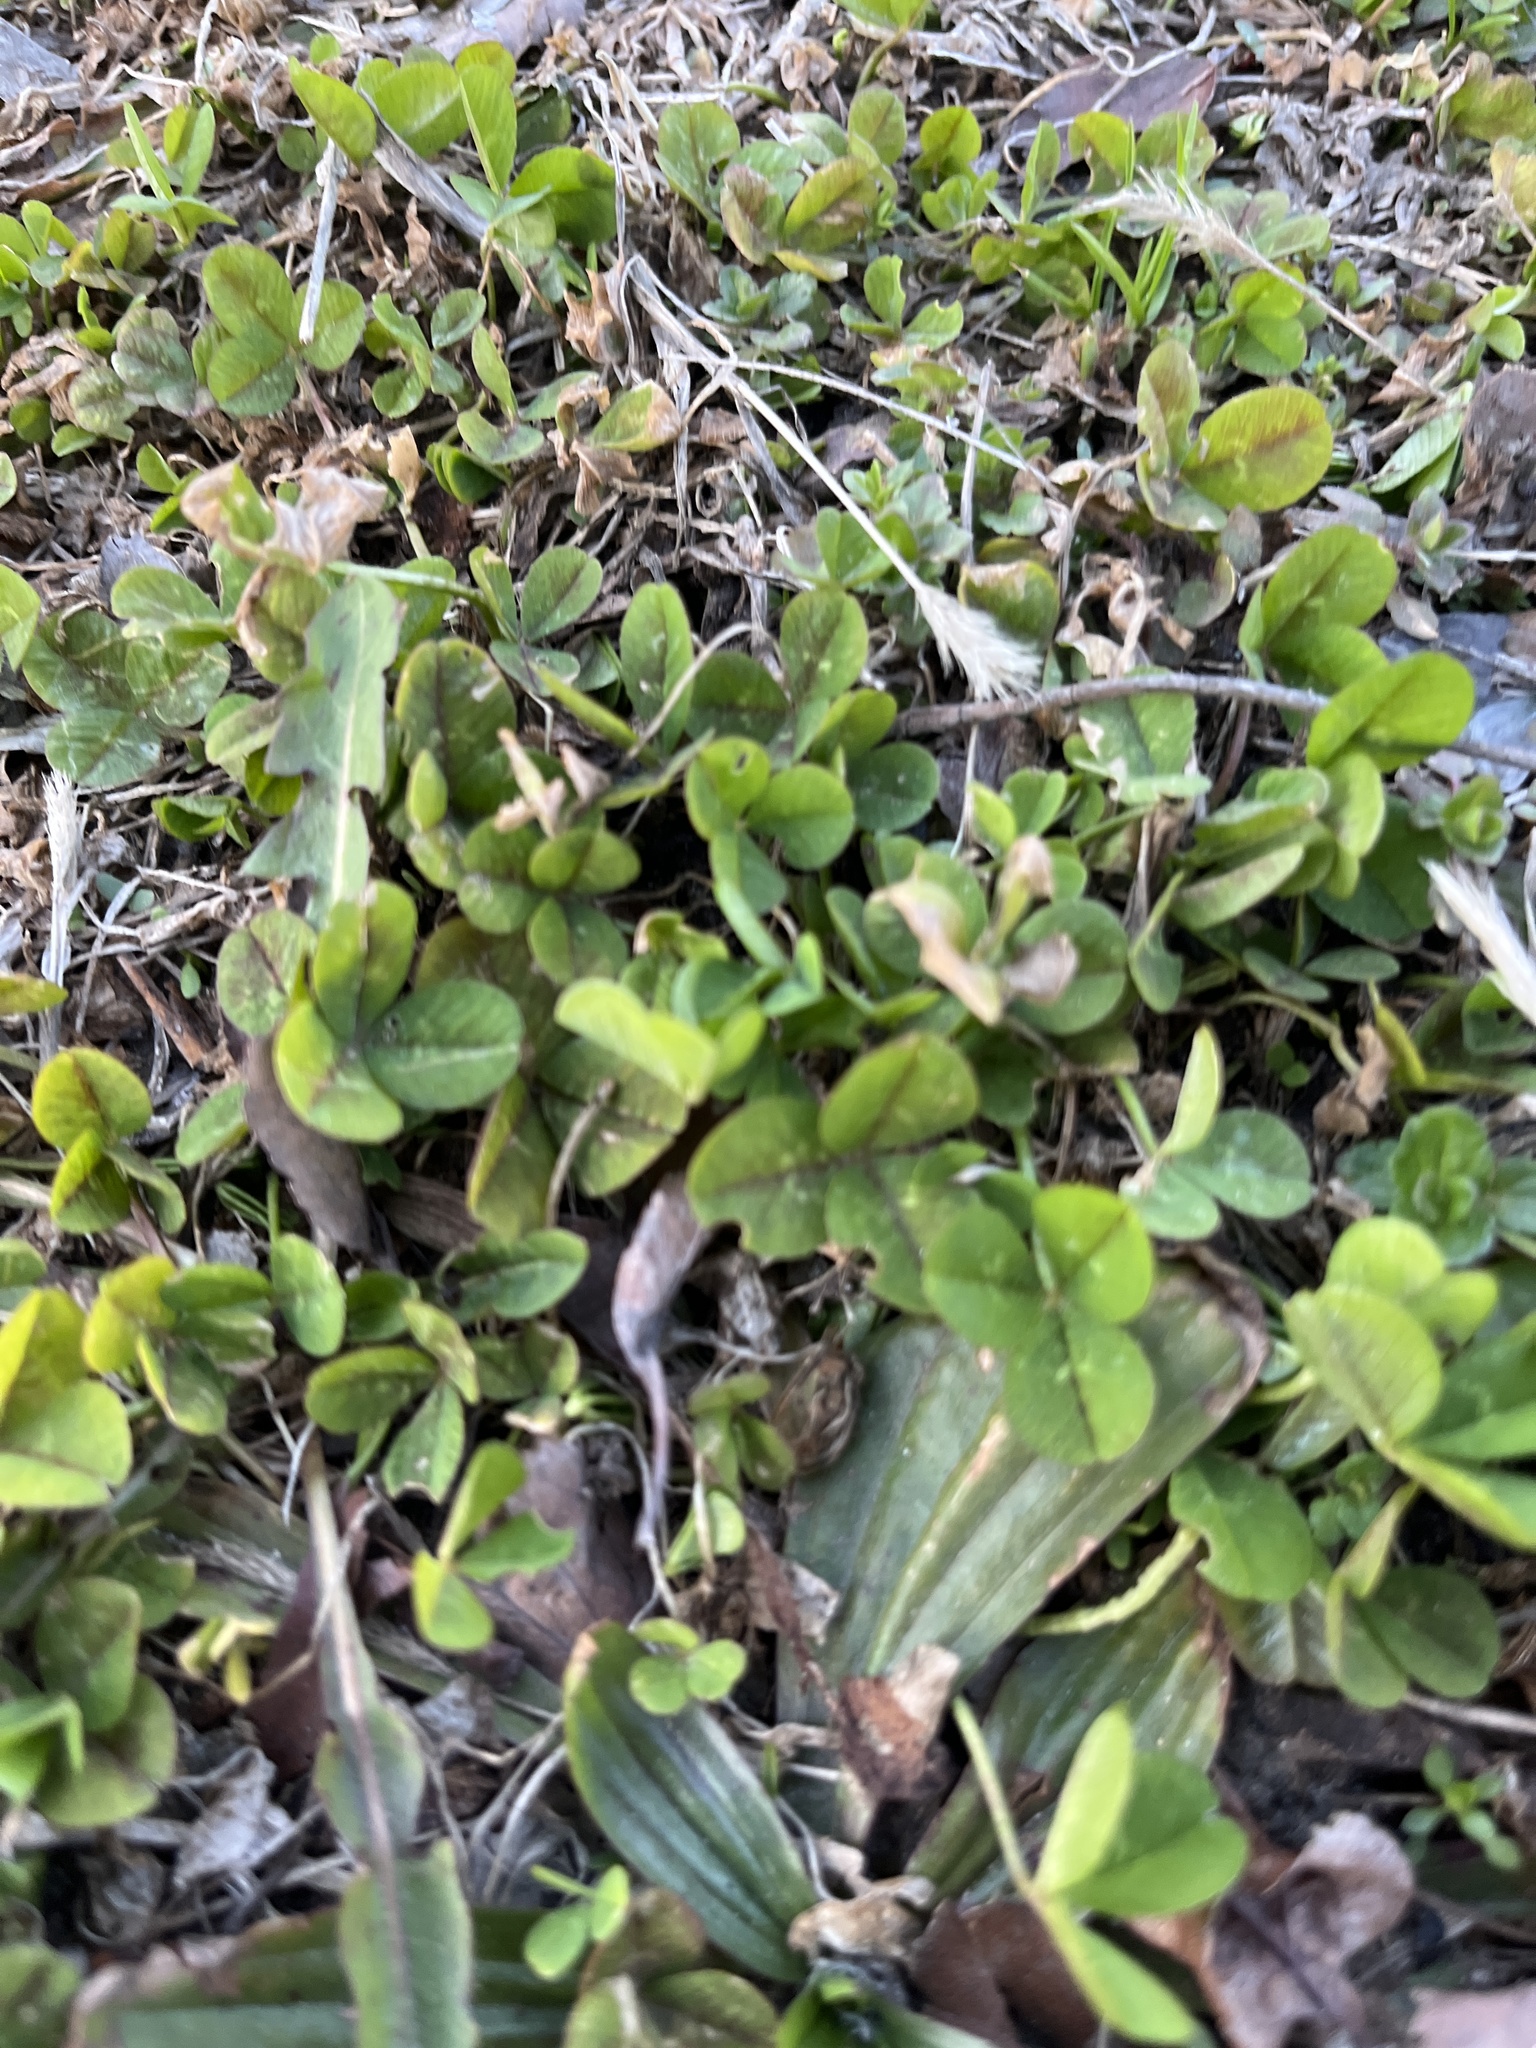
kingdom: Plantae
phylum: Tracheophyta
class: Magnoliopsida
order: Fabales
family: Fabaceae
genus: Trifolium
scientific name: Trifolium repens
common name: White clover
